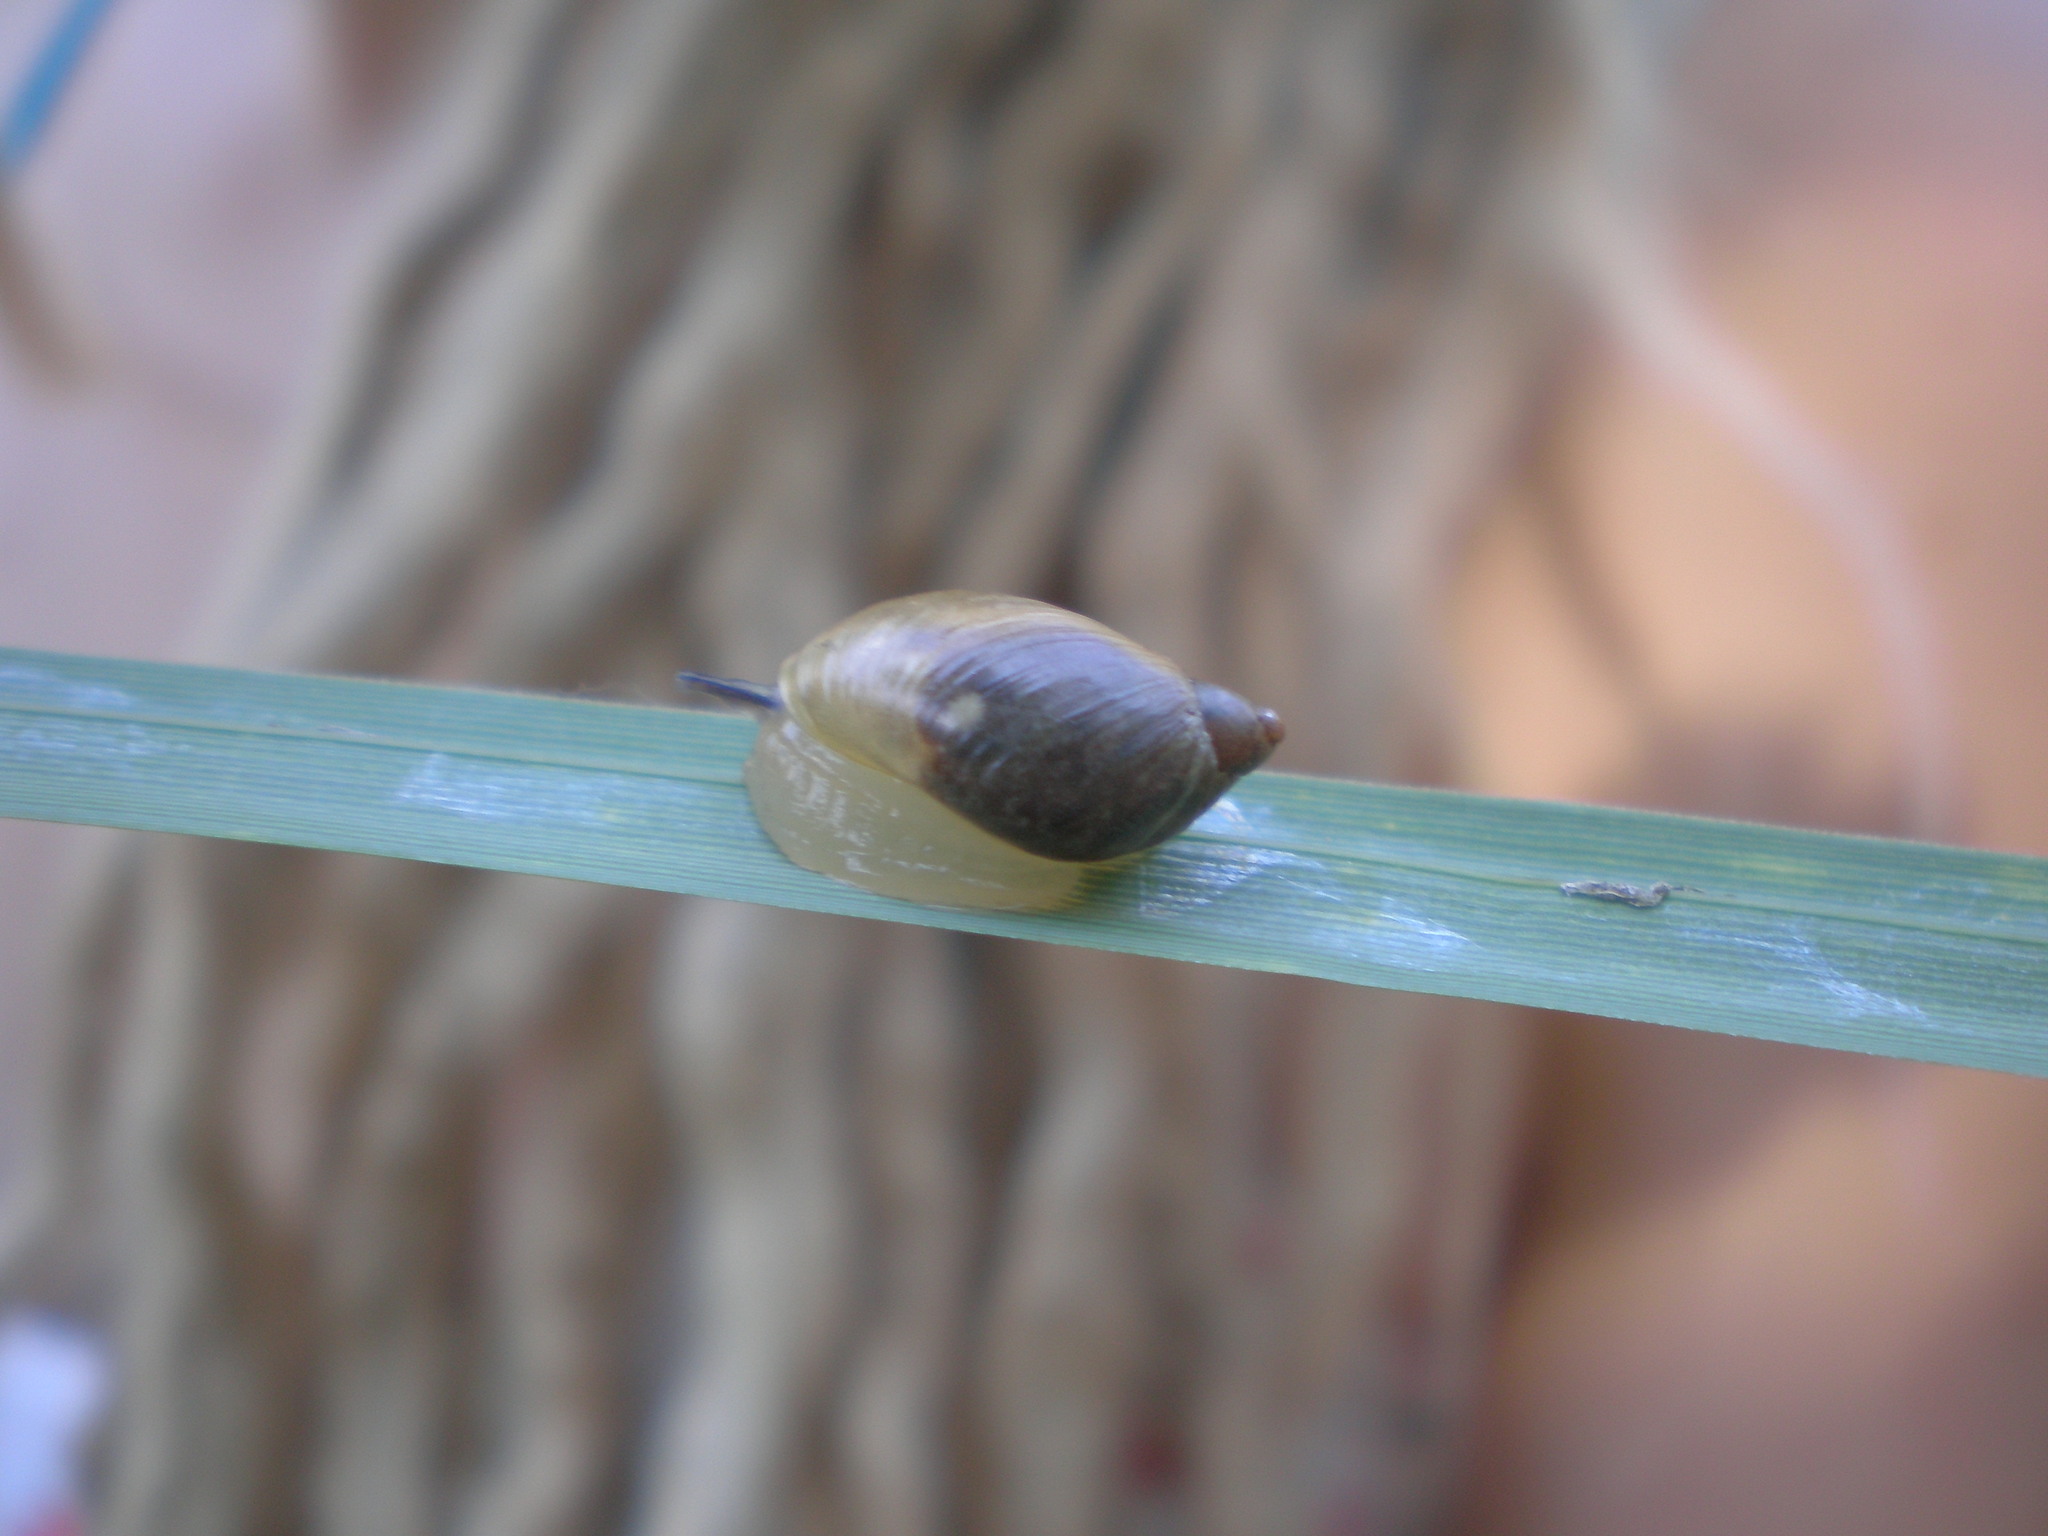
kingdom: Animalia
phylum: Mollusca
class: Gastropoda
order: Stylommatophora
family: Succineidae
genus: Succinea
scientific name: Succinea putris
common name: European ambersnail
